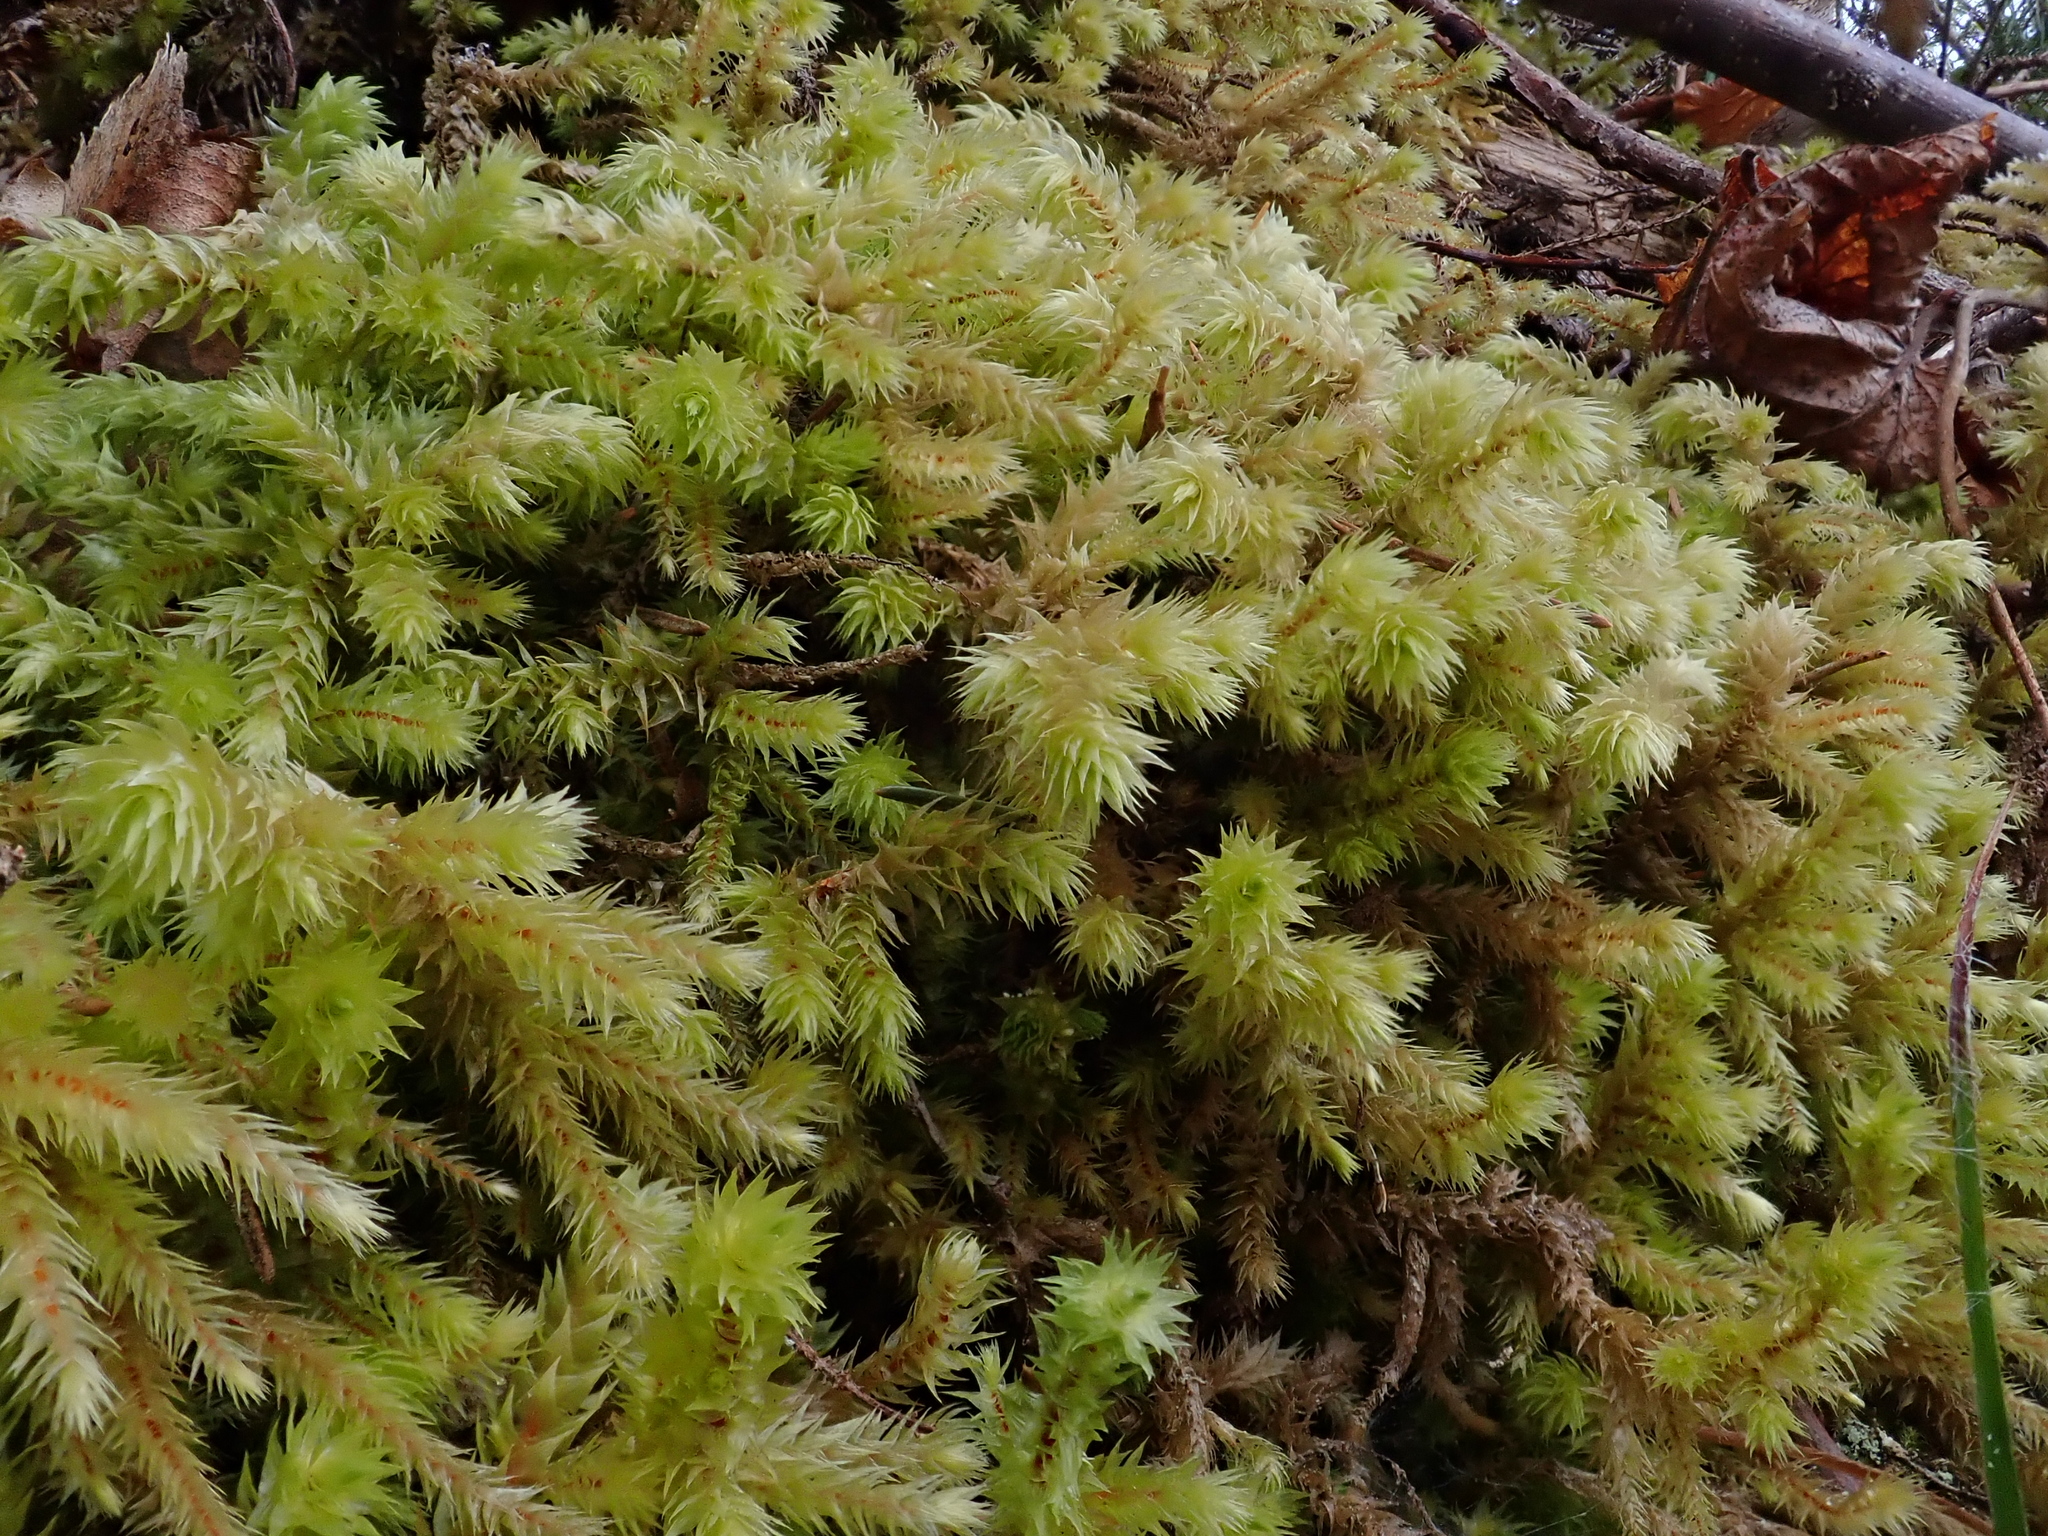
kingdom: Plantae
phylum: Bryophyta
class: Bryopsida
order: Hypnales
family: Hylocomiaceae
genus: Hylocomiadelphus
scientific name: Hylocomiadelphus triquetrus
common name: Rough goose neck moss
